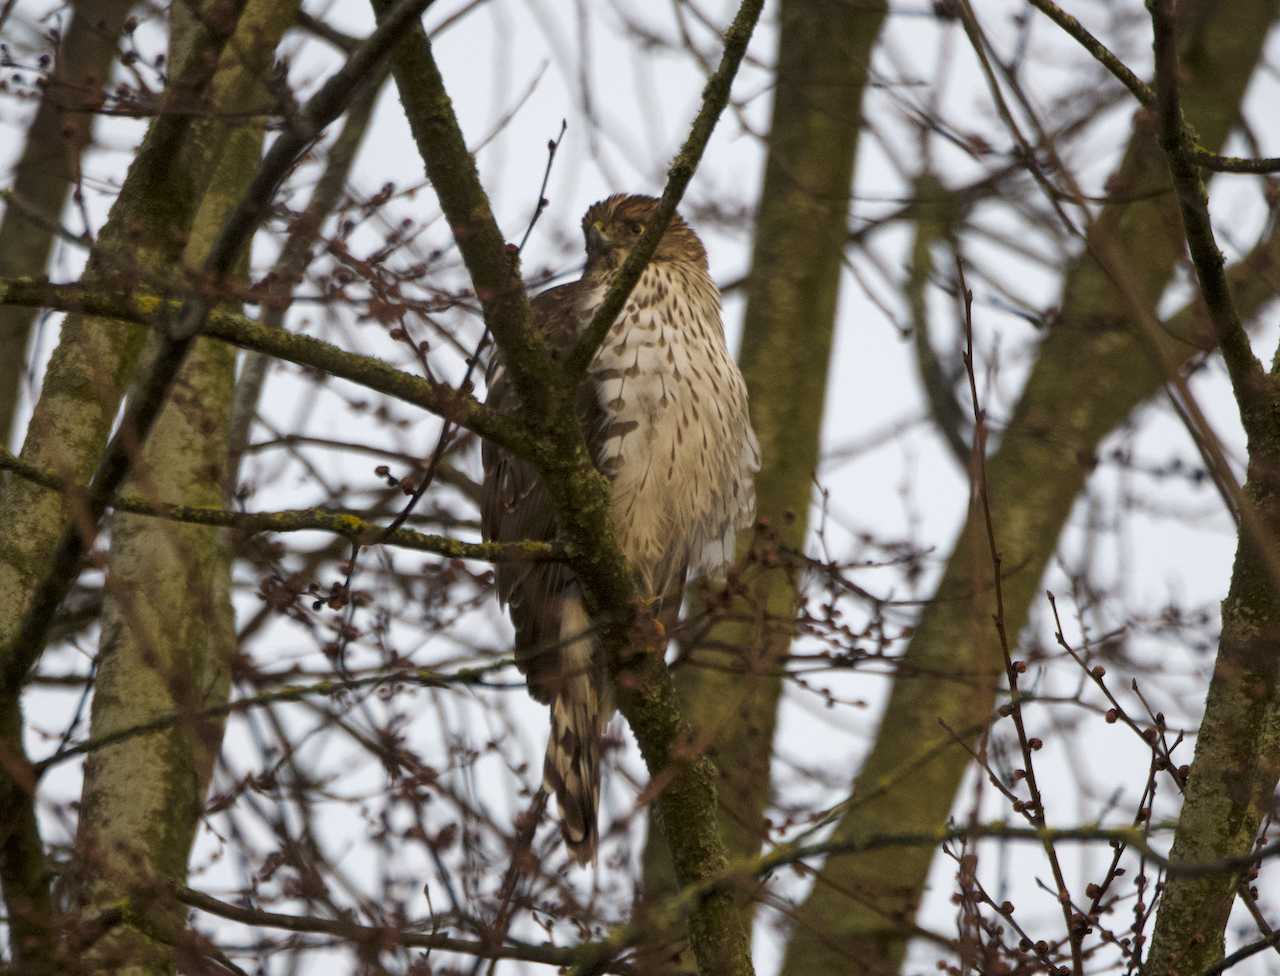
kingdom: Animalia
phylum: Chordata
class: Aves
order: Accipitriformes
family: Accipitridae
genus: Accipiter
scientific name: Accipiter cooperii
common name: Cooper's hawk
